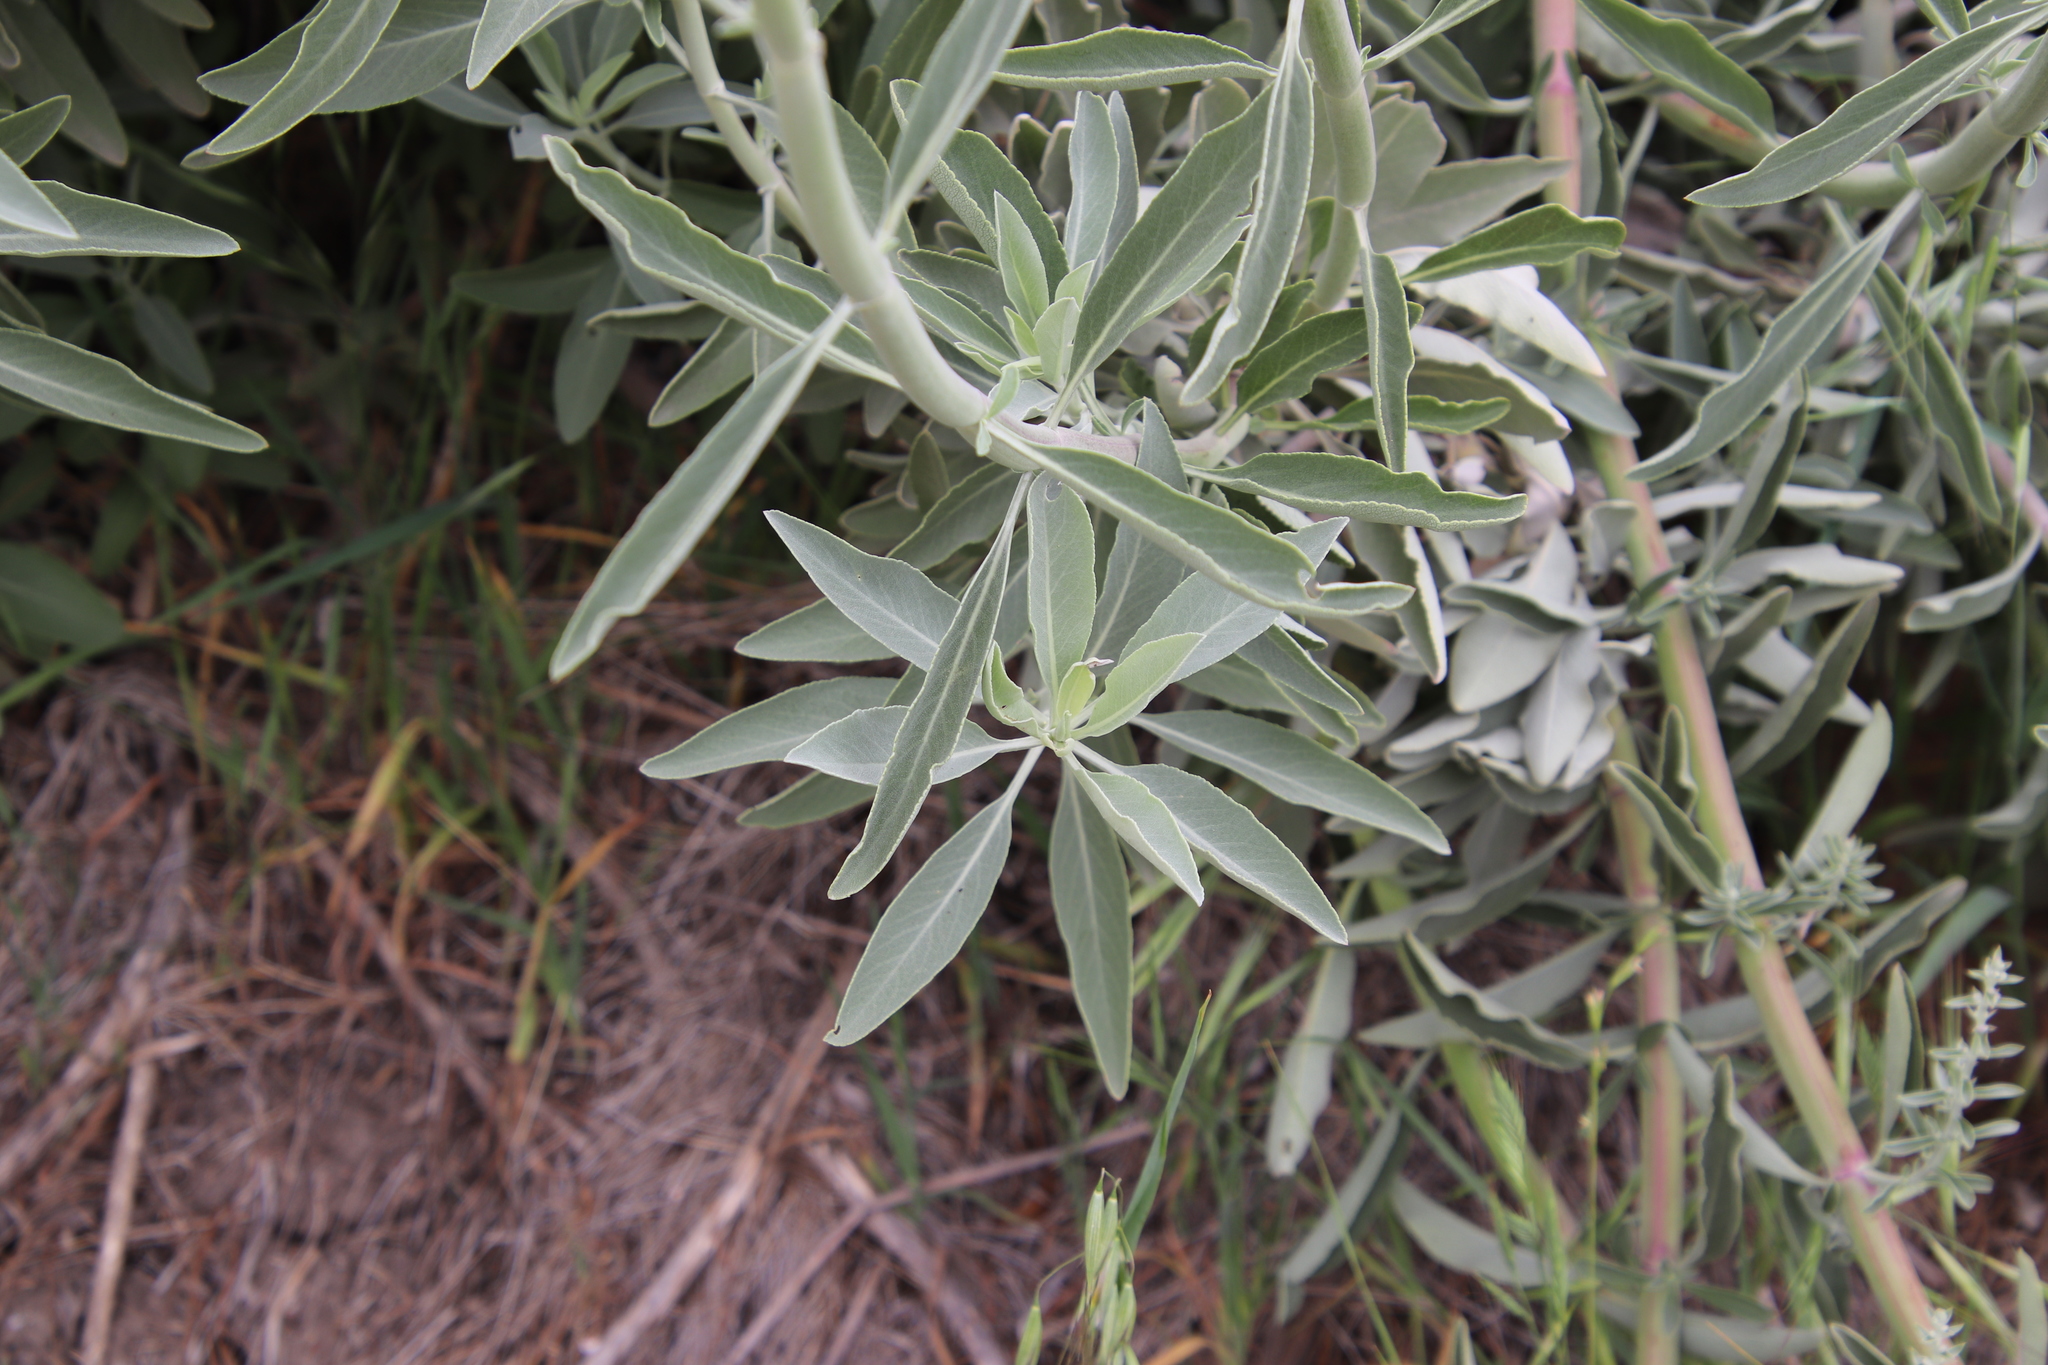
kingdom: Plantae
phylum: Tracheophyta
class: Magnoliopsida
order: Lamiales
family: Lamiaceae
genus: Salvia
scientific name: Salvia apiana
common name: White sage
